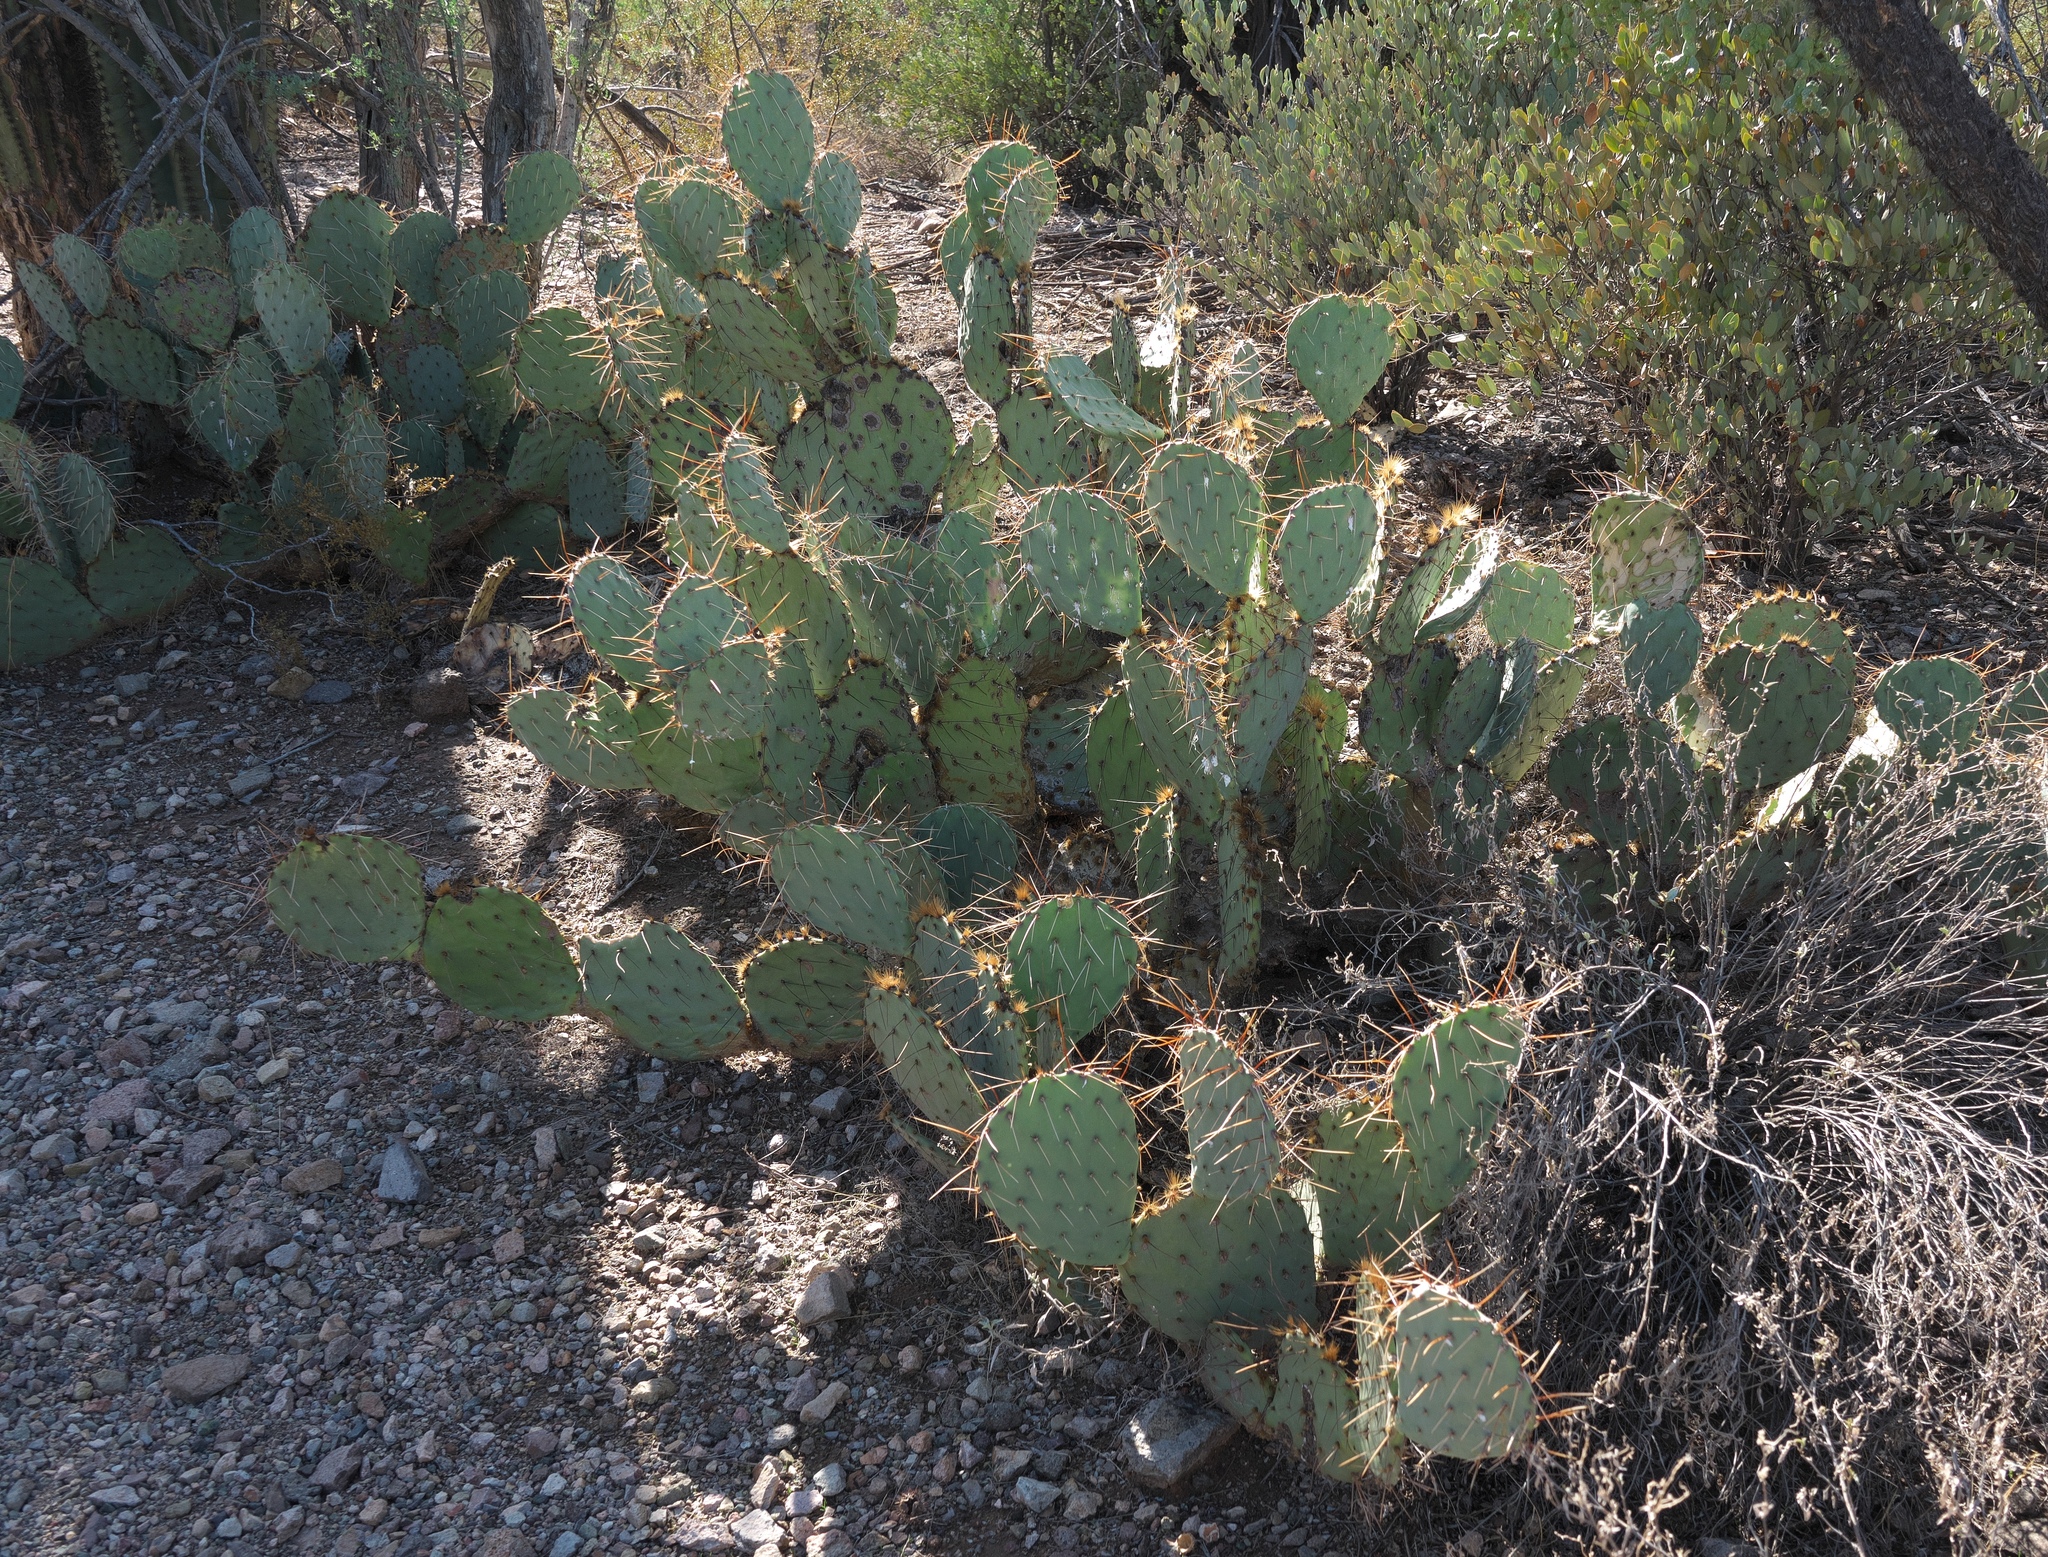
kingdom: Plantae
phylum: Tracheophyta
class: Magnoliopsida
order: Caryophyllales
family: Cactaceae
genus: Opuntia
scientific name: Opuntia engelmannii
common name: Cactus-apple
